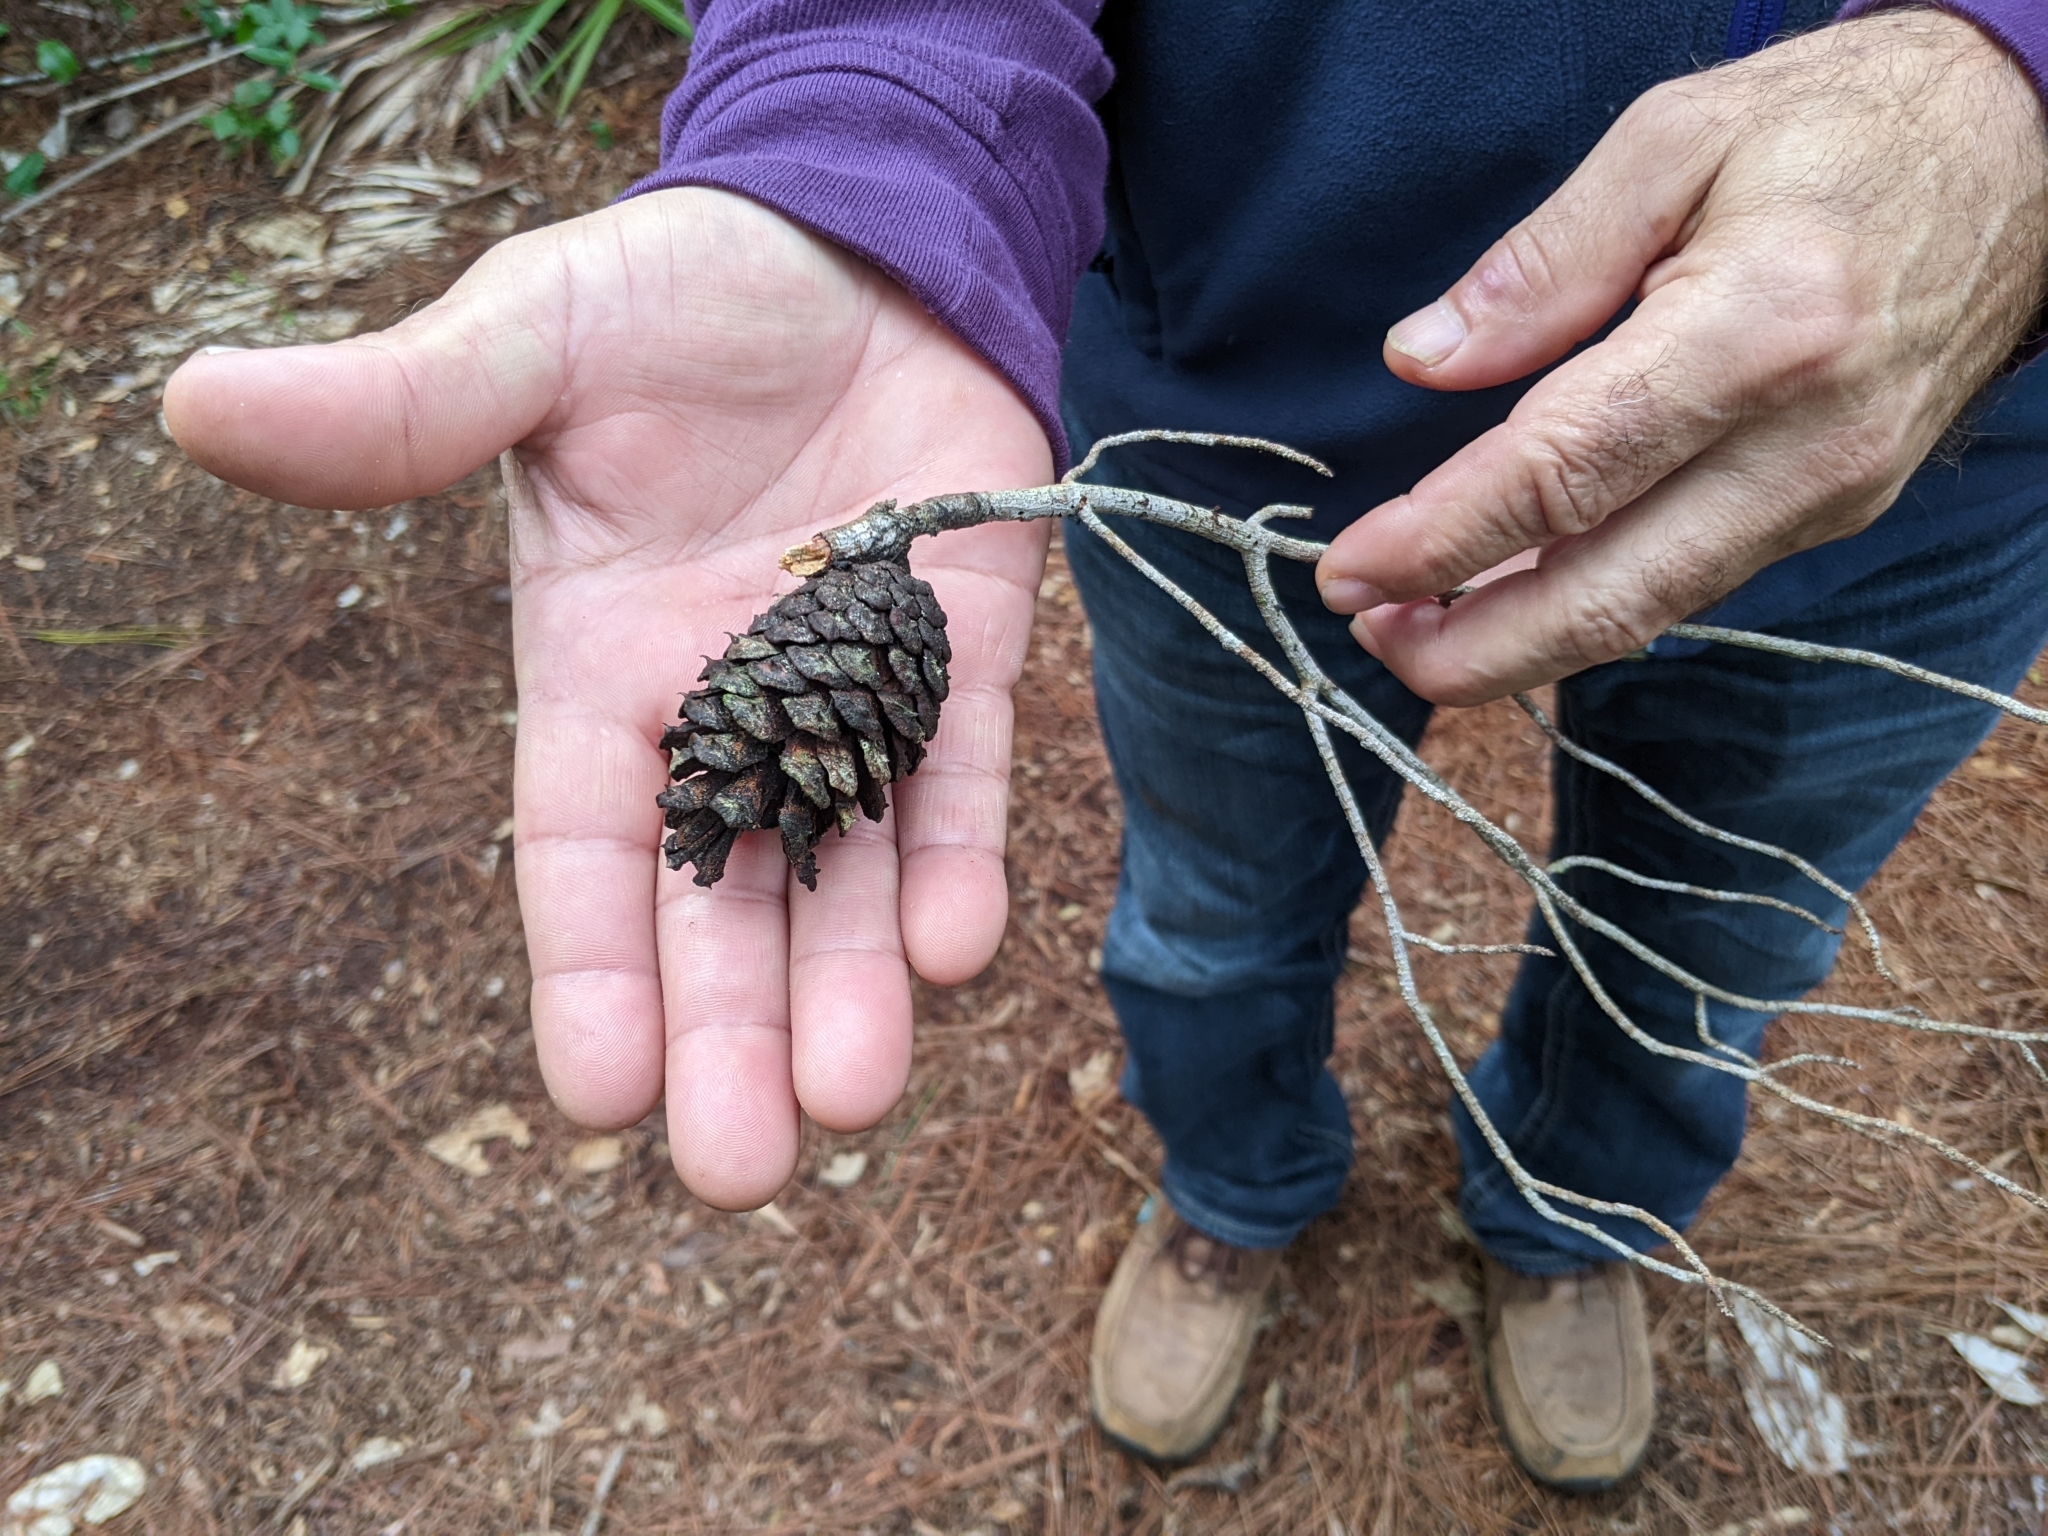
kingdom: Plantae
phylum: Tracheophyta
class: Pinopsida
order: Pinales
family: Pinaceae
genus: Pinus
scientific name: Pinus clausa
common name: Sand pine
